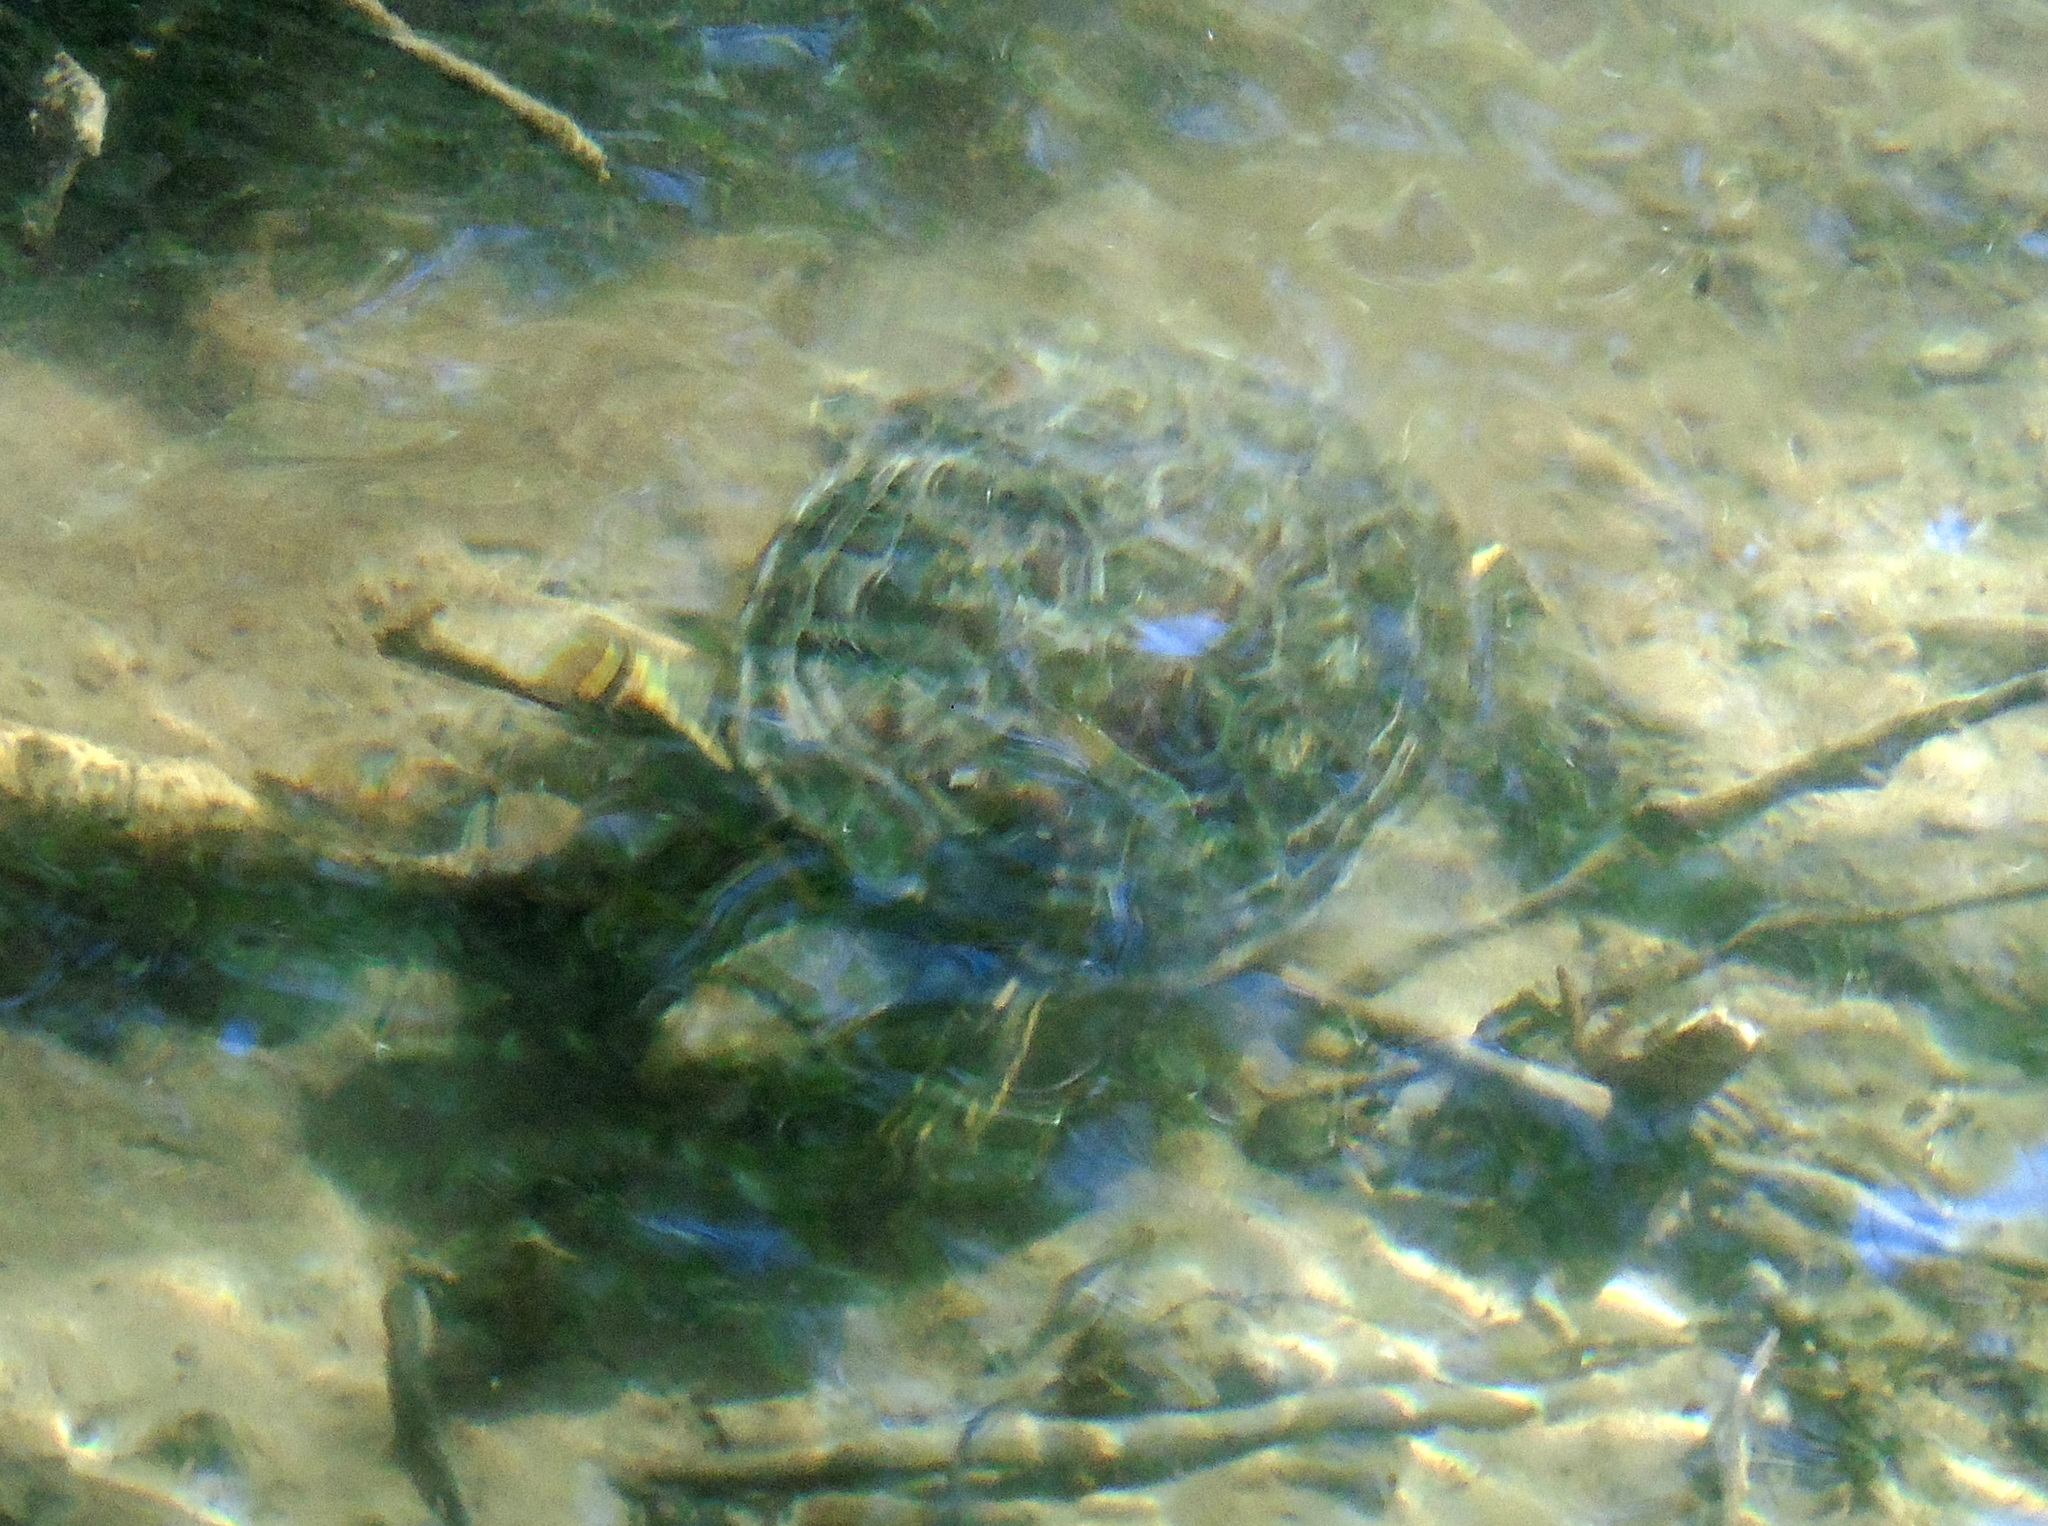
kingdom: Animalia
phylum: Chordata
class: Testudines
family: Geoemydidae
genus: Mauremys
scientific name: Mauremys caspica
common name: Caspian turtle
